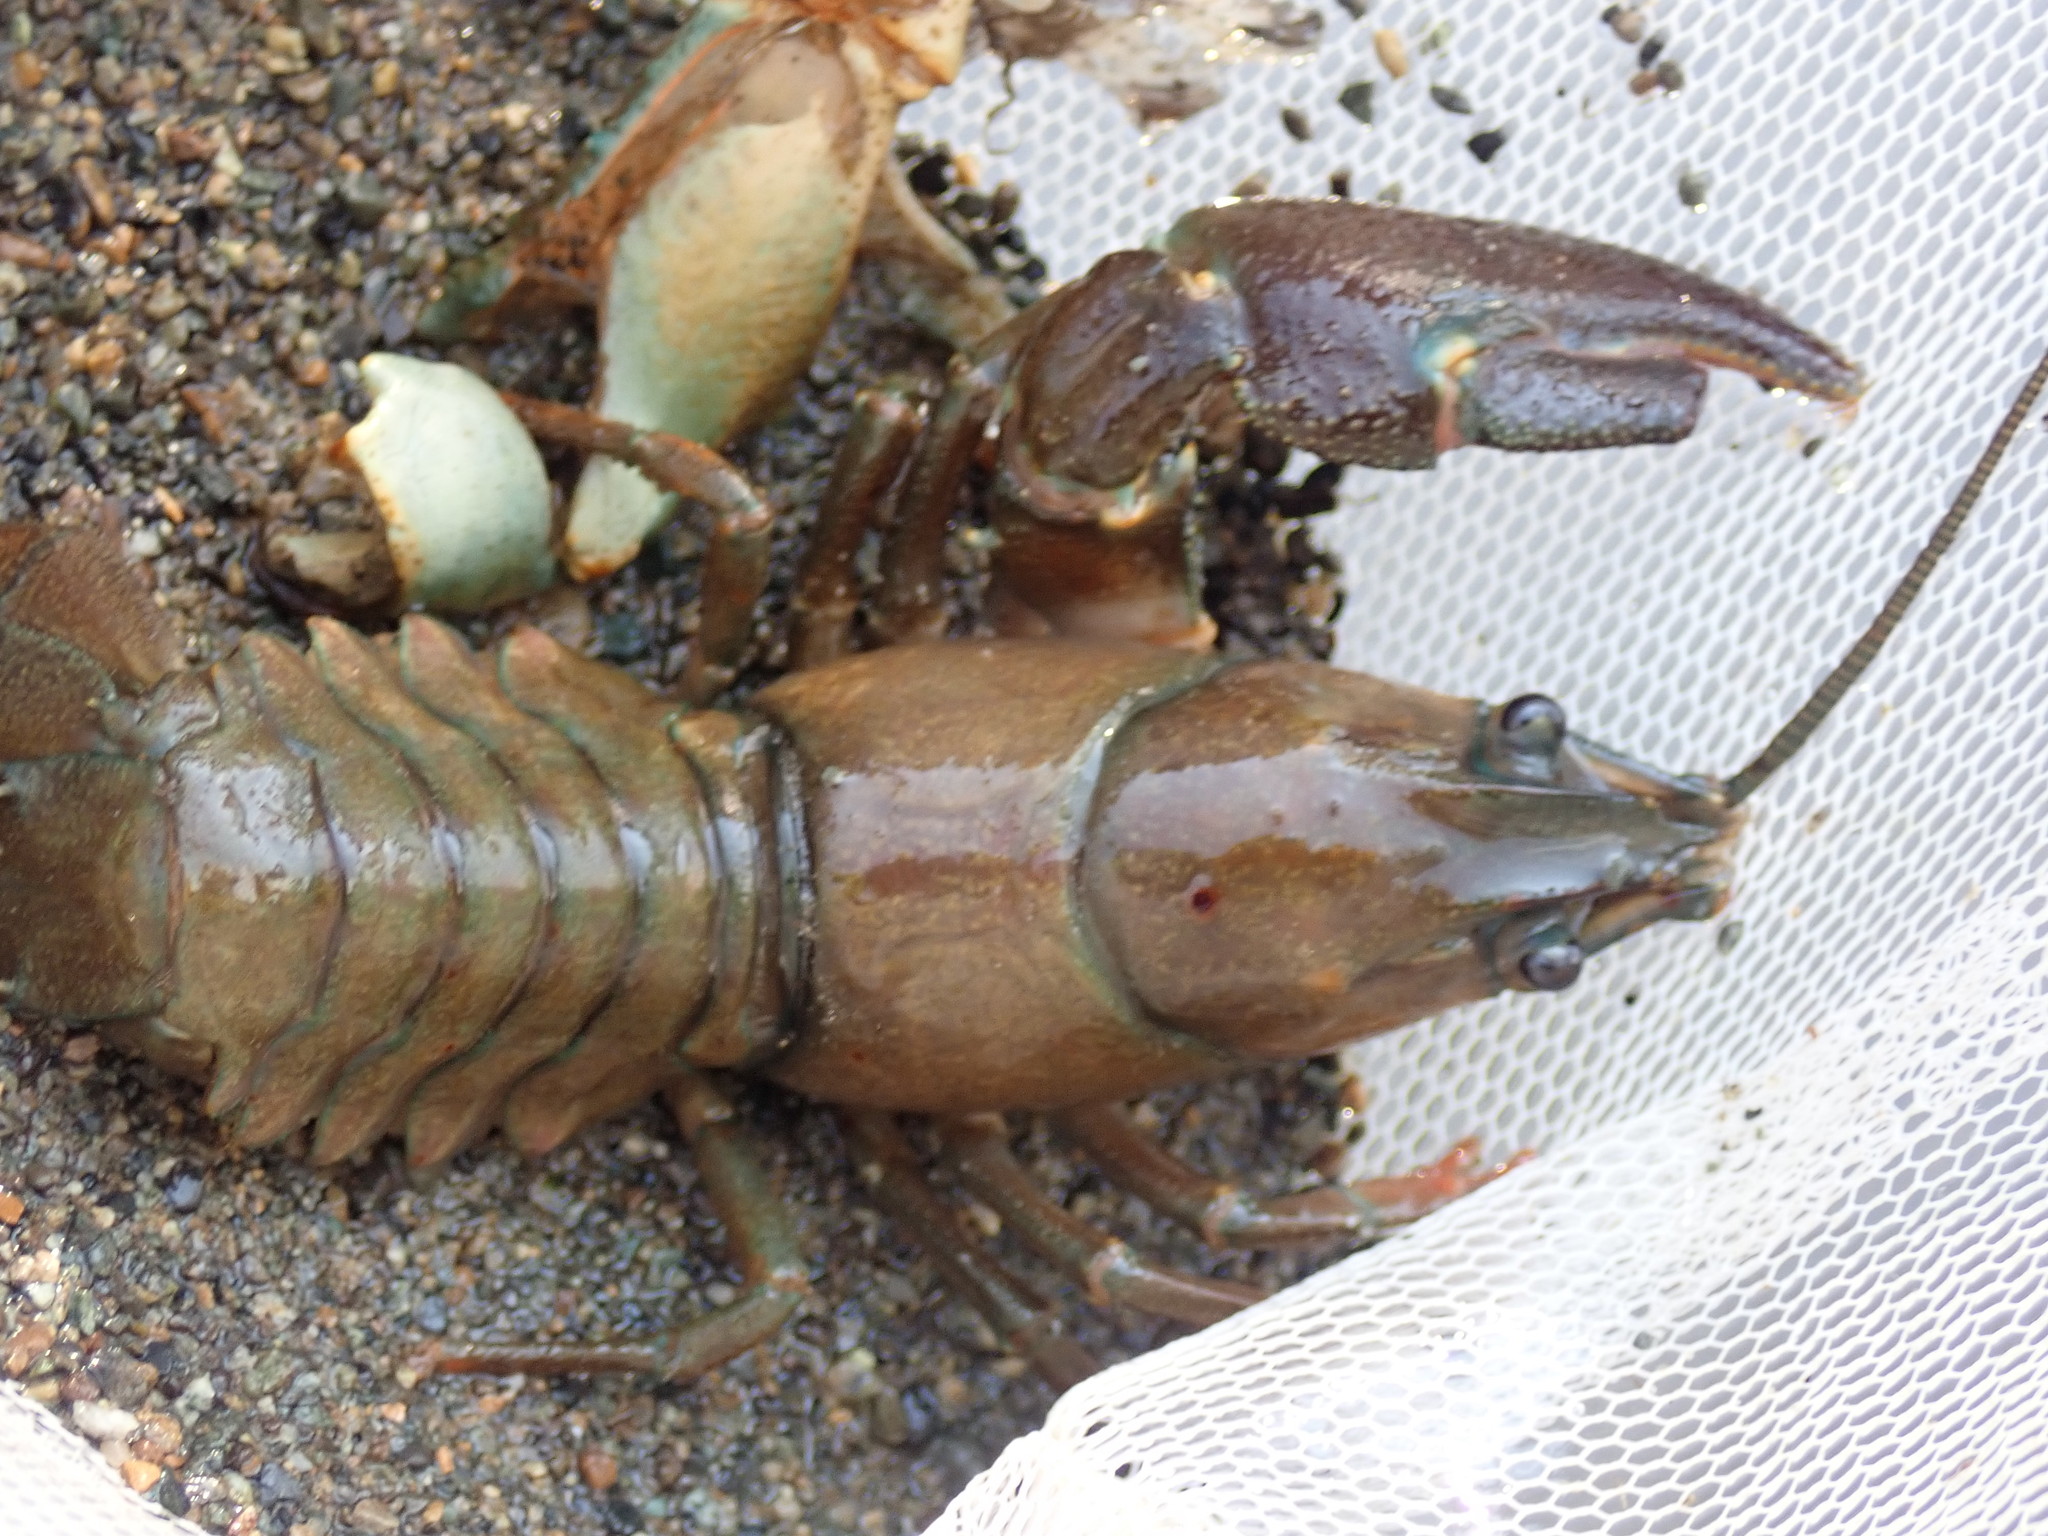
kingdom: Animalia
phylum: Arthropoda
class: Malacostraca
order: Decapoda
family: Astacidae
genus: Pacifastacus
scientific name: Pacifastacus leniusculus
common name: Signal crayfish
